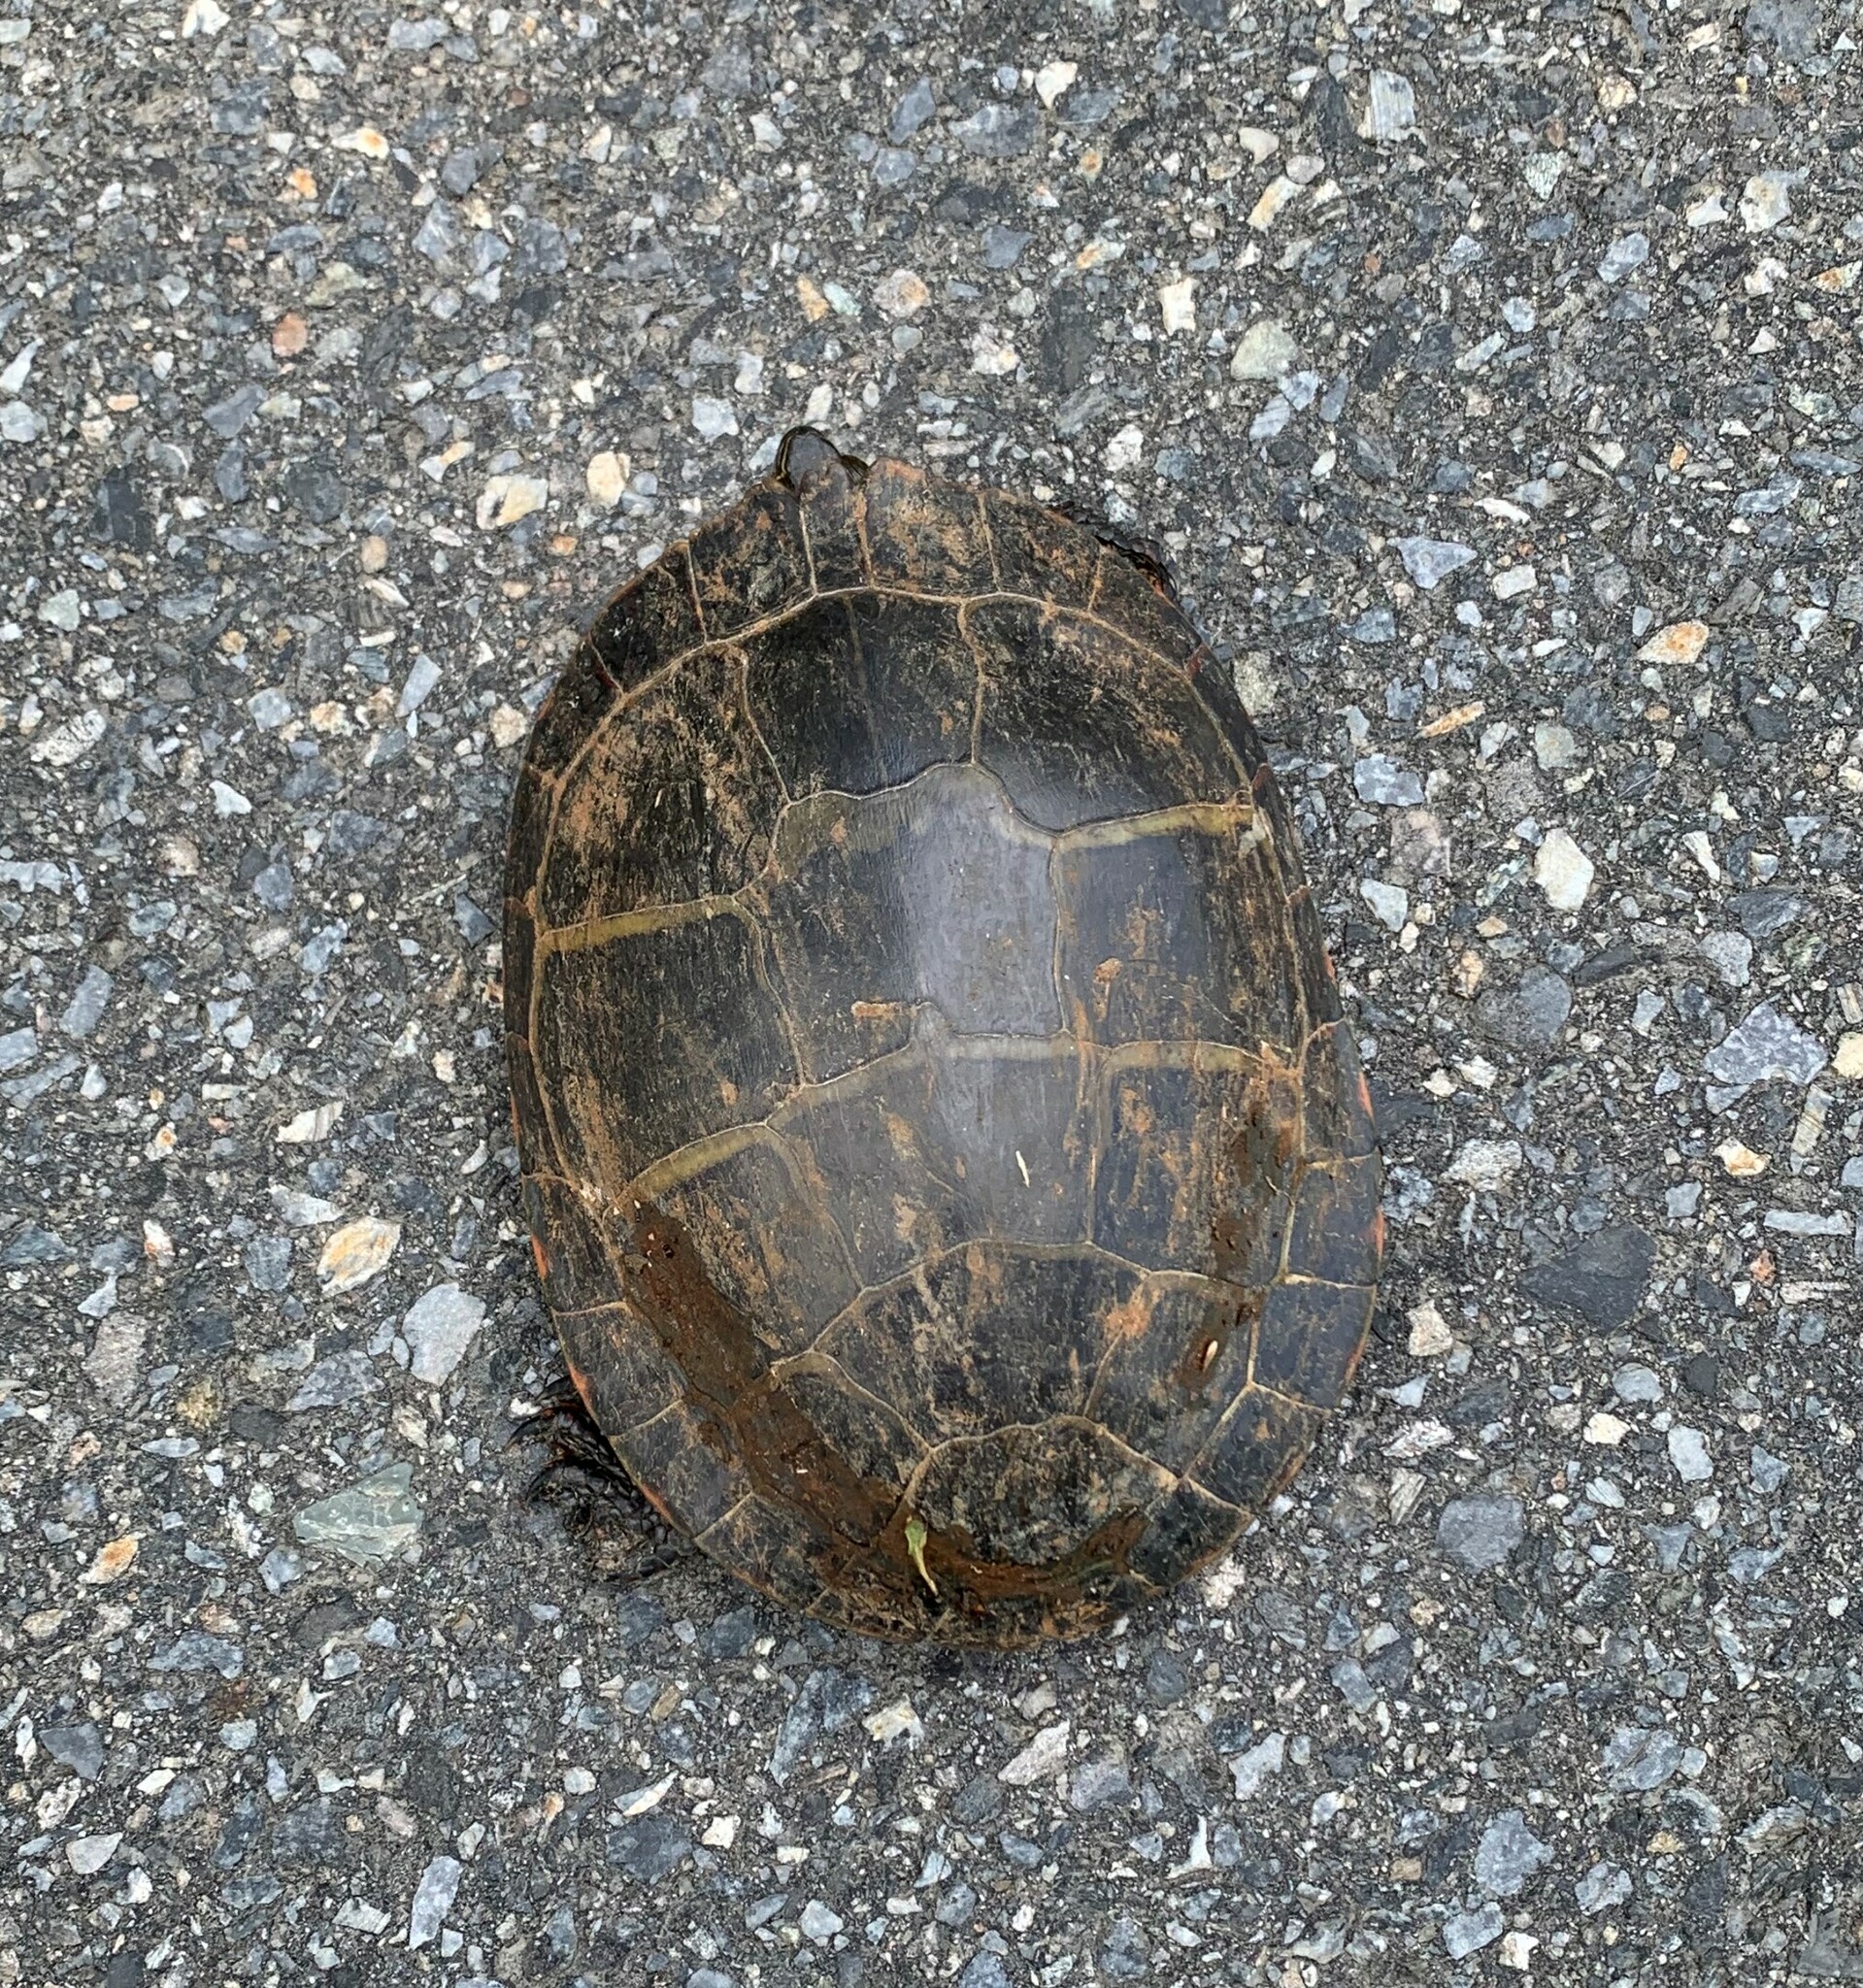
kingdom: Animalia
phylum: Chordata
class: Testudines
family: Emydidae
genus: Chrysemys
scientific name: Chrysemys picta
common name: Painted turtle
